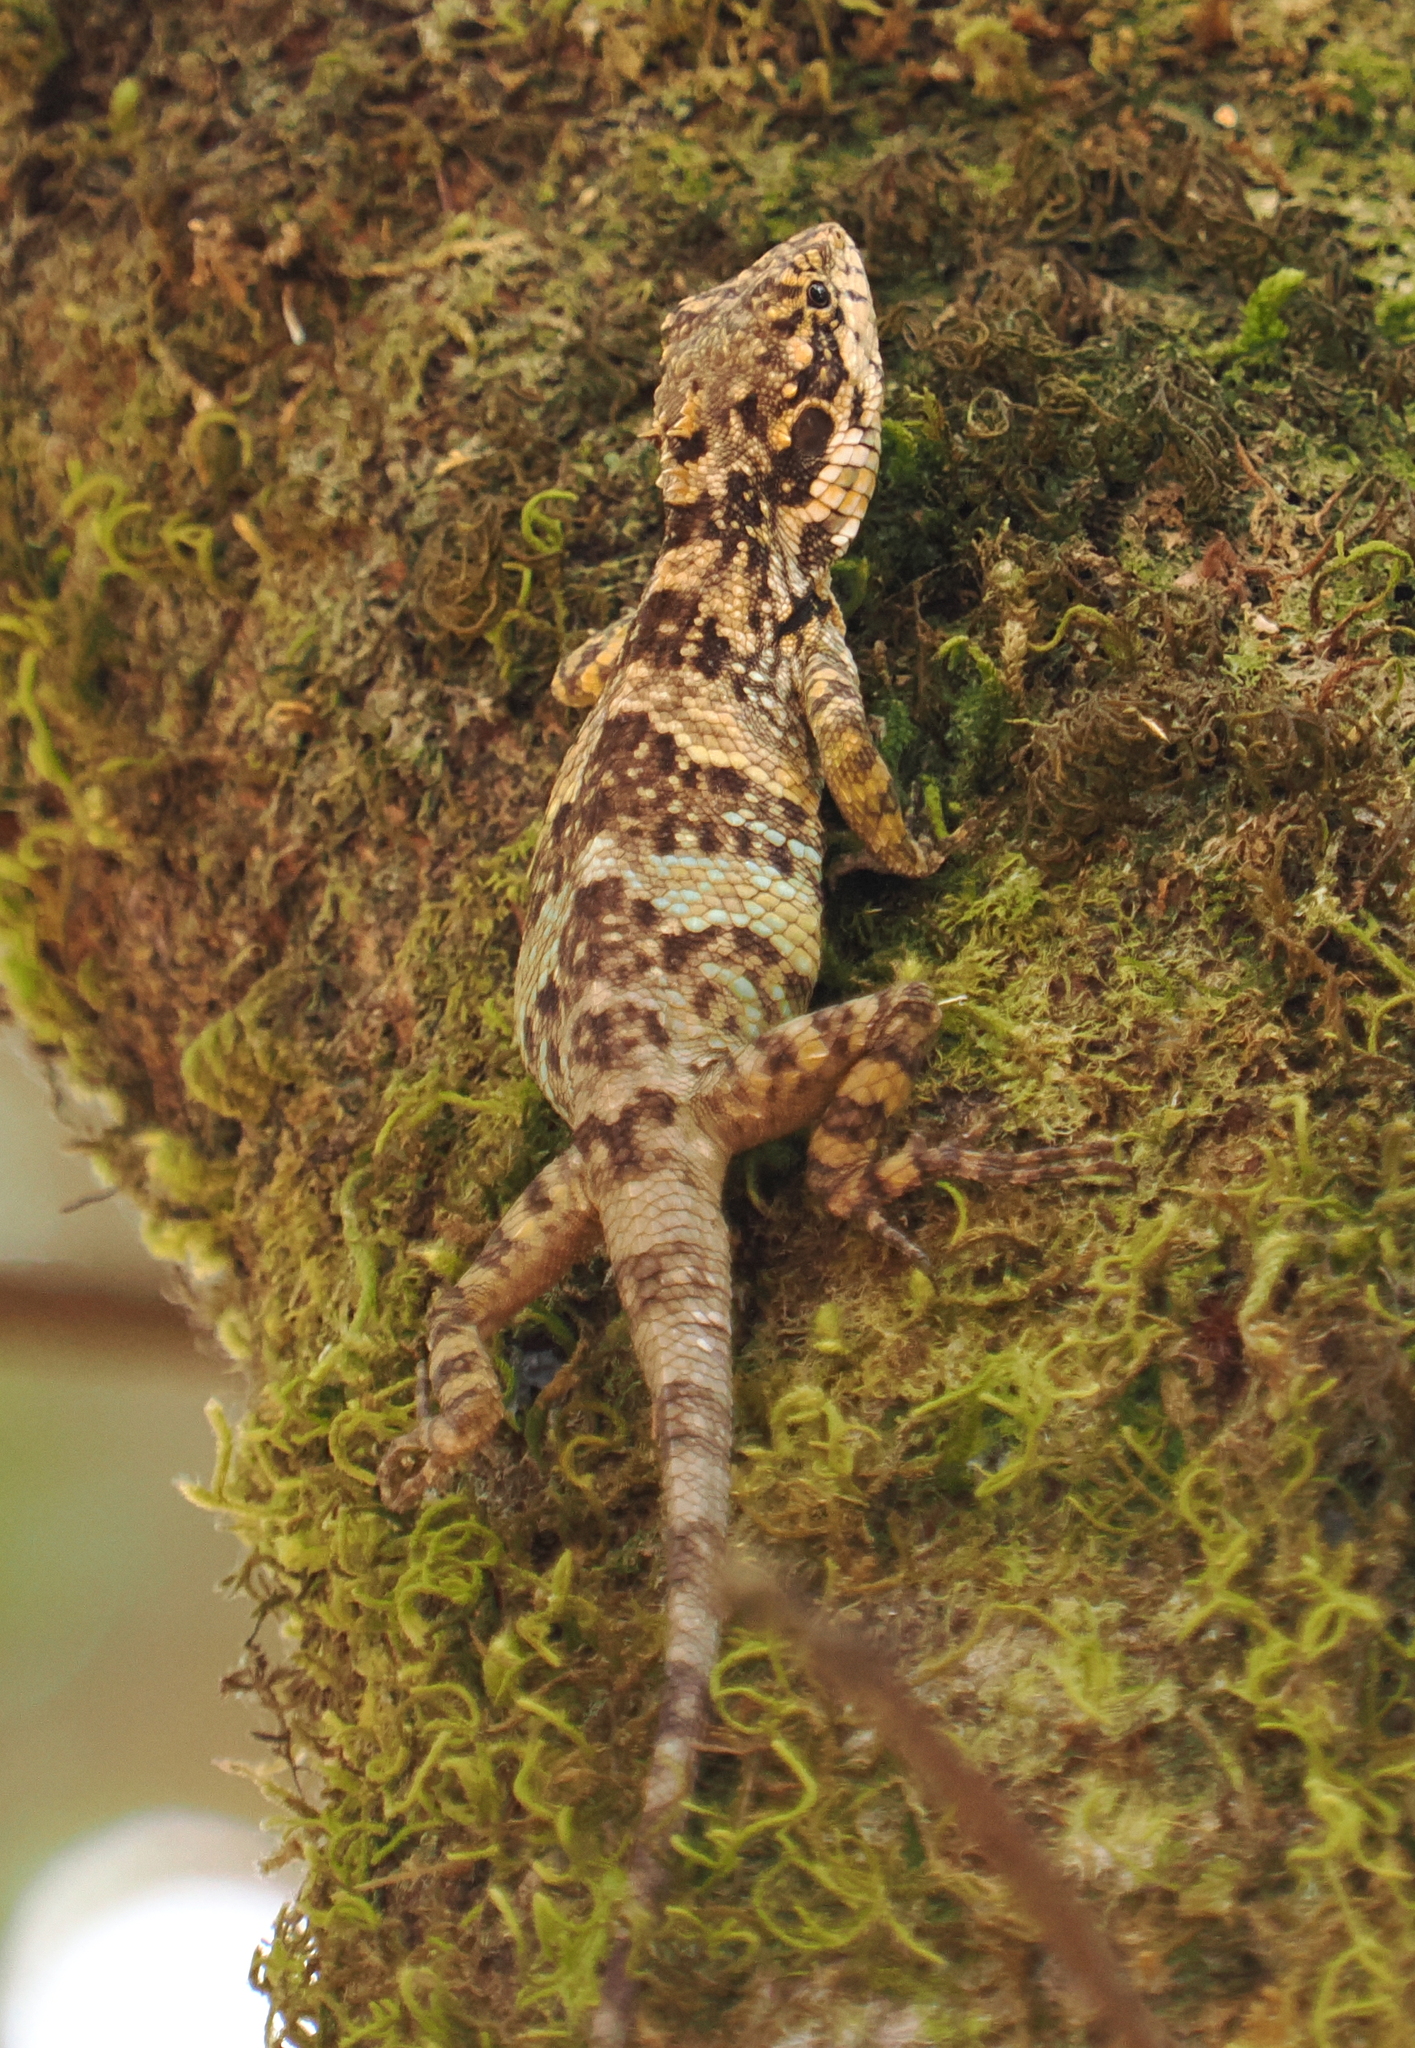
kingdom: Animalia
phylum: Chordata
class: Squamata
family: Agamidae
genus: Pseudocalotes
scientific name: Pseudocalotes kakhienensis
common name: Burmese mountain agamid
